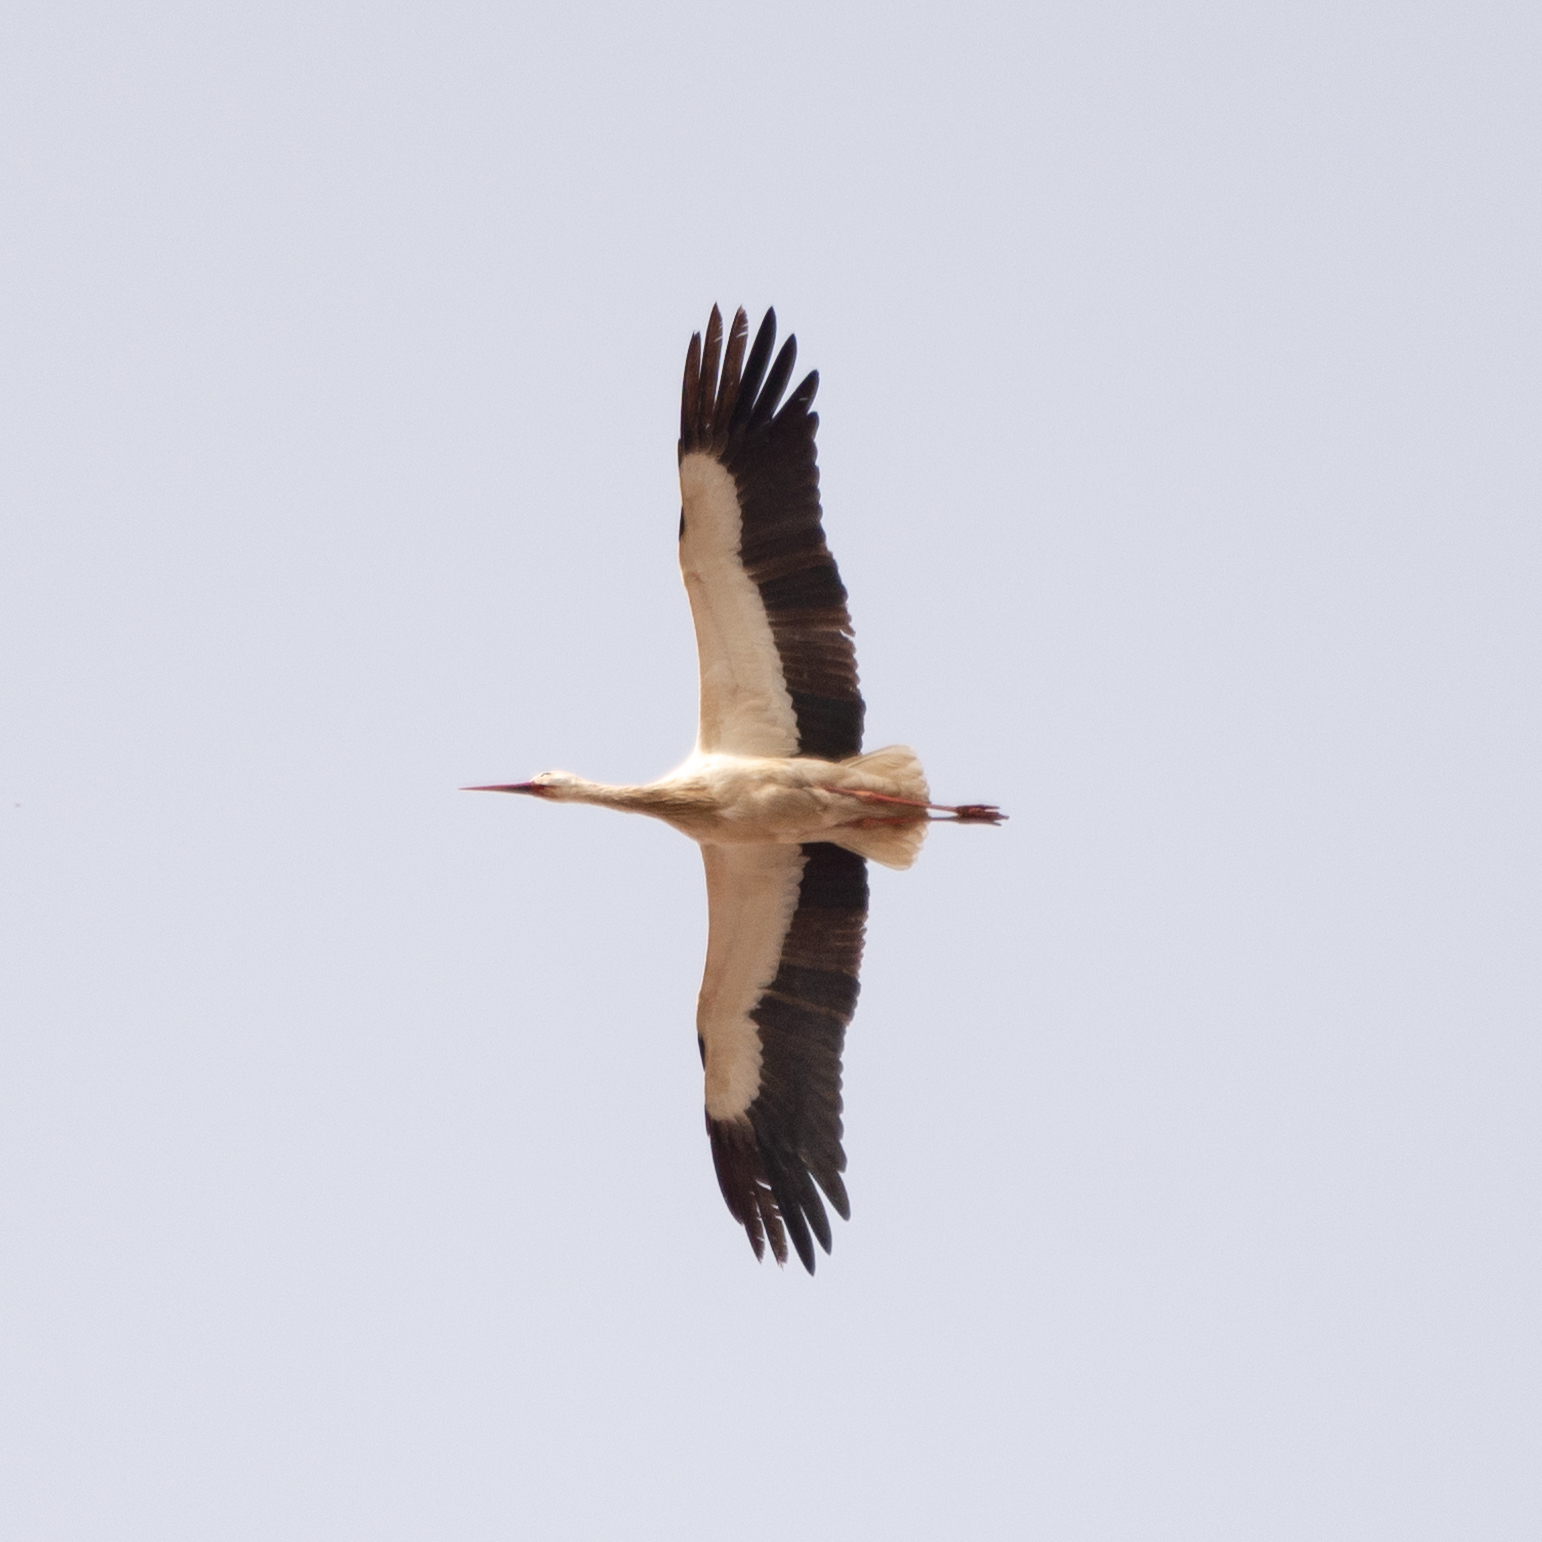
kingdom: Animalia
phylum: Chordata
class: Aves
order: Ciconiiformes
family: Ciconiidae
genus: Ciconia
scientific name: Ciconia ciconia
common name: White stork
